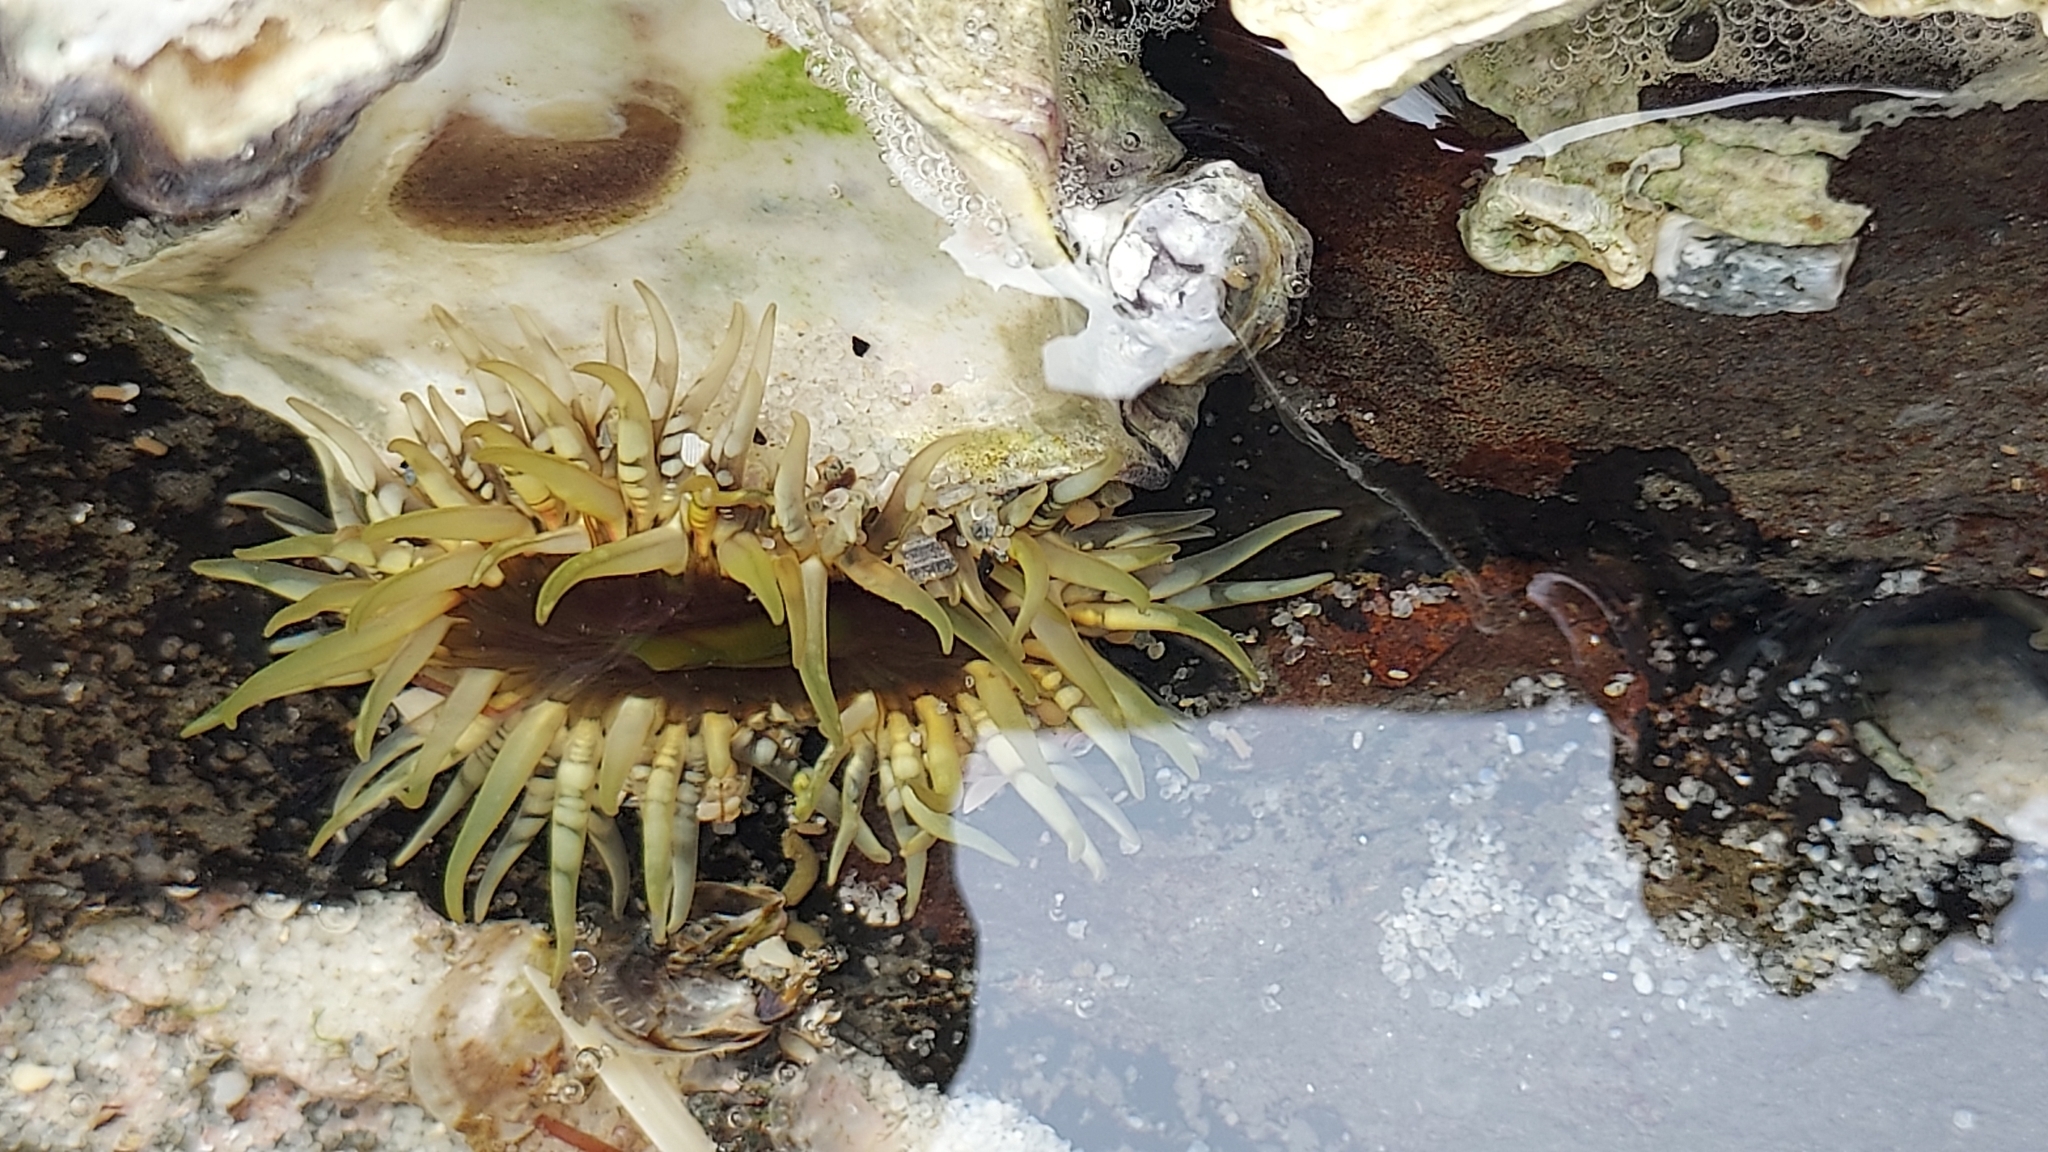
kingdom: Animalia
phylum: Cnidaria
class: Anthozoa
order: Actiniaria
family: Actiniidae
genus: Oulactis
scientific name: Oulactis muscosa
